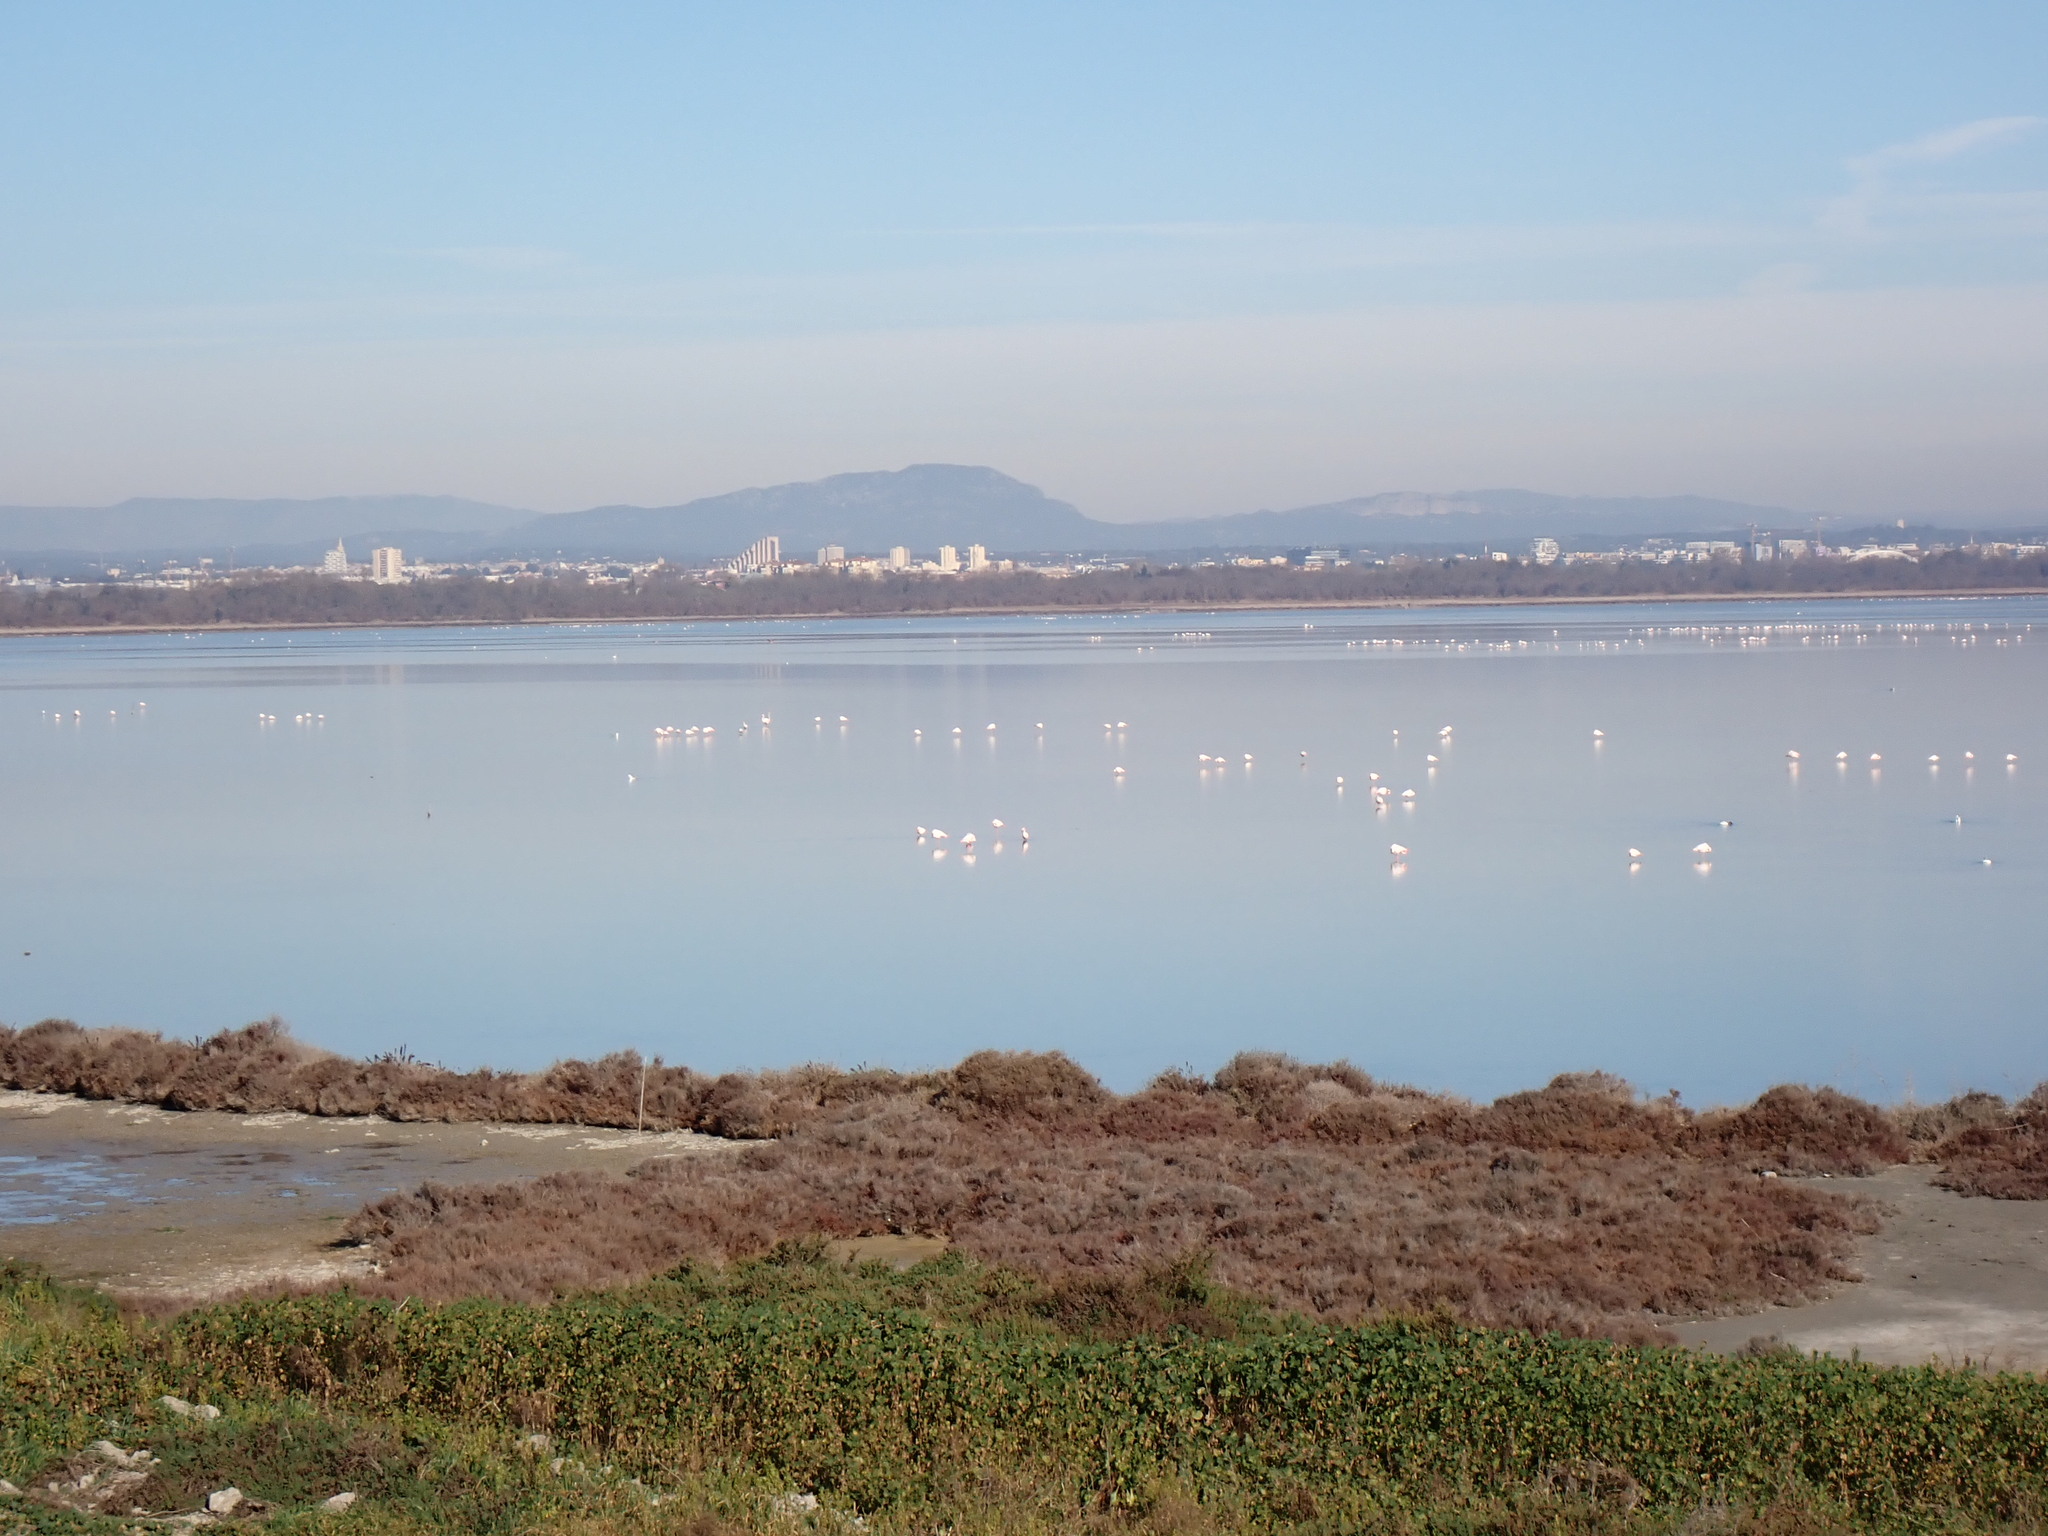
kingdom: Animalia
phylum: Chordata
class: Aves
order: Phoenicopteriformes
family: Phoenicopteridae
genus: Phoenicopterus
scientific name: Phoenicopterus roseus
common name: Greater flamingo
